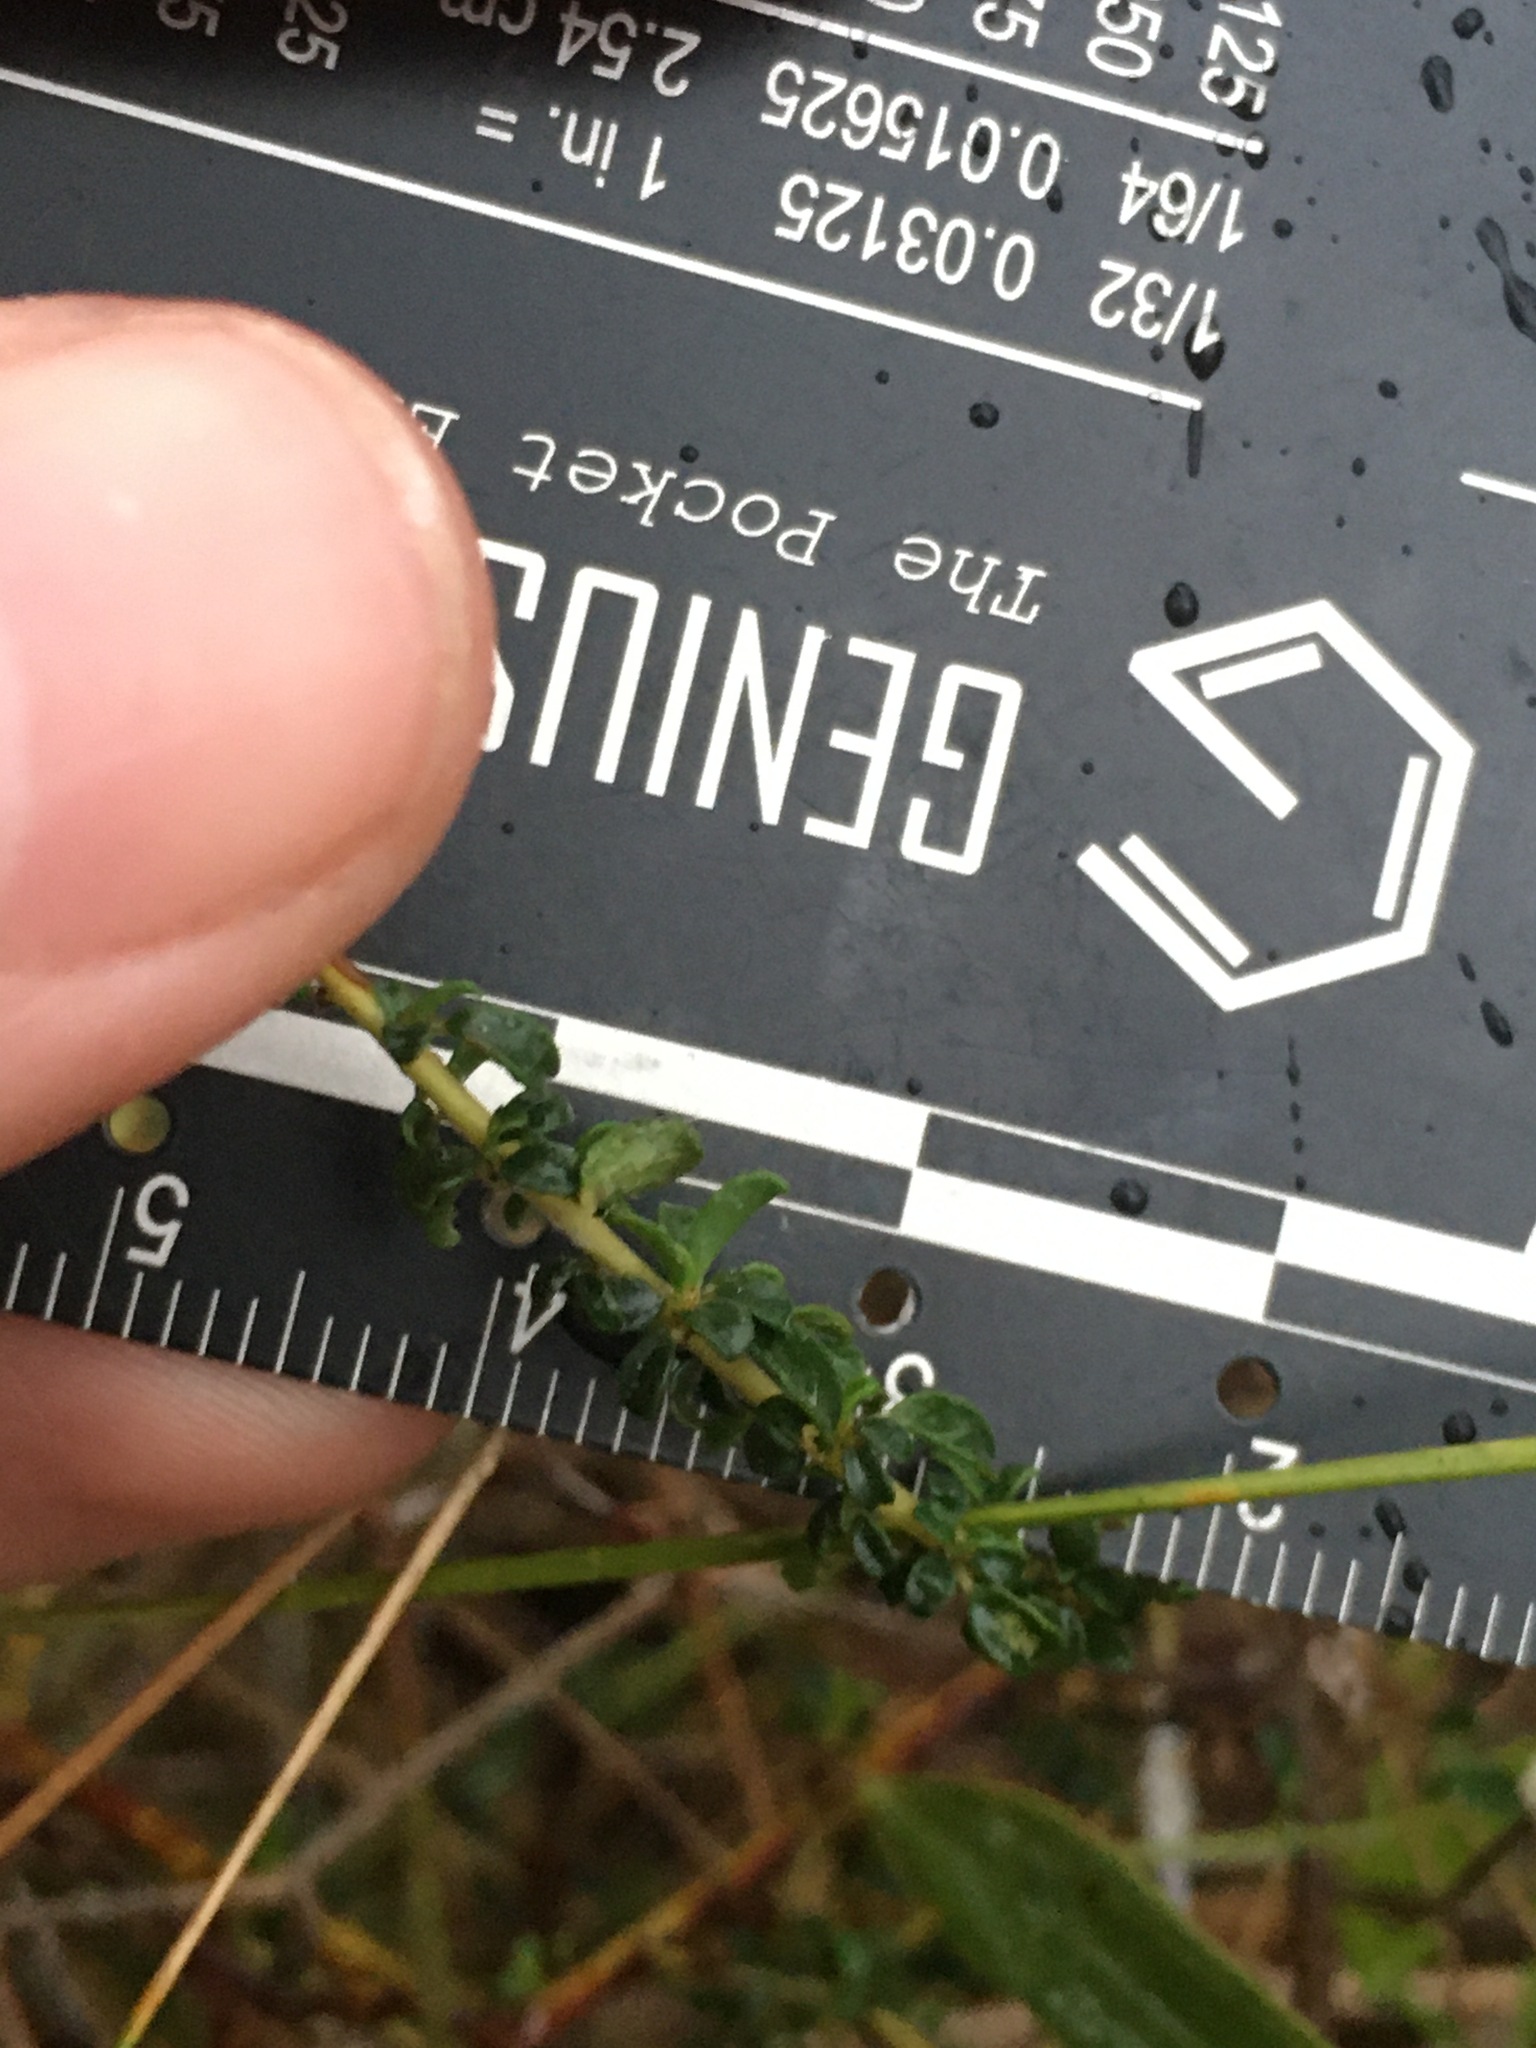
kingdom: Plantae
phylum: Tracheophyta
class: Magnoliopsida
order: Rosales
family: Rhamnaceae
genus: Ceanothus
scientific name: Ceanothus microphyllus
